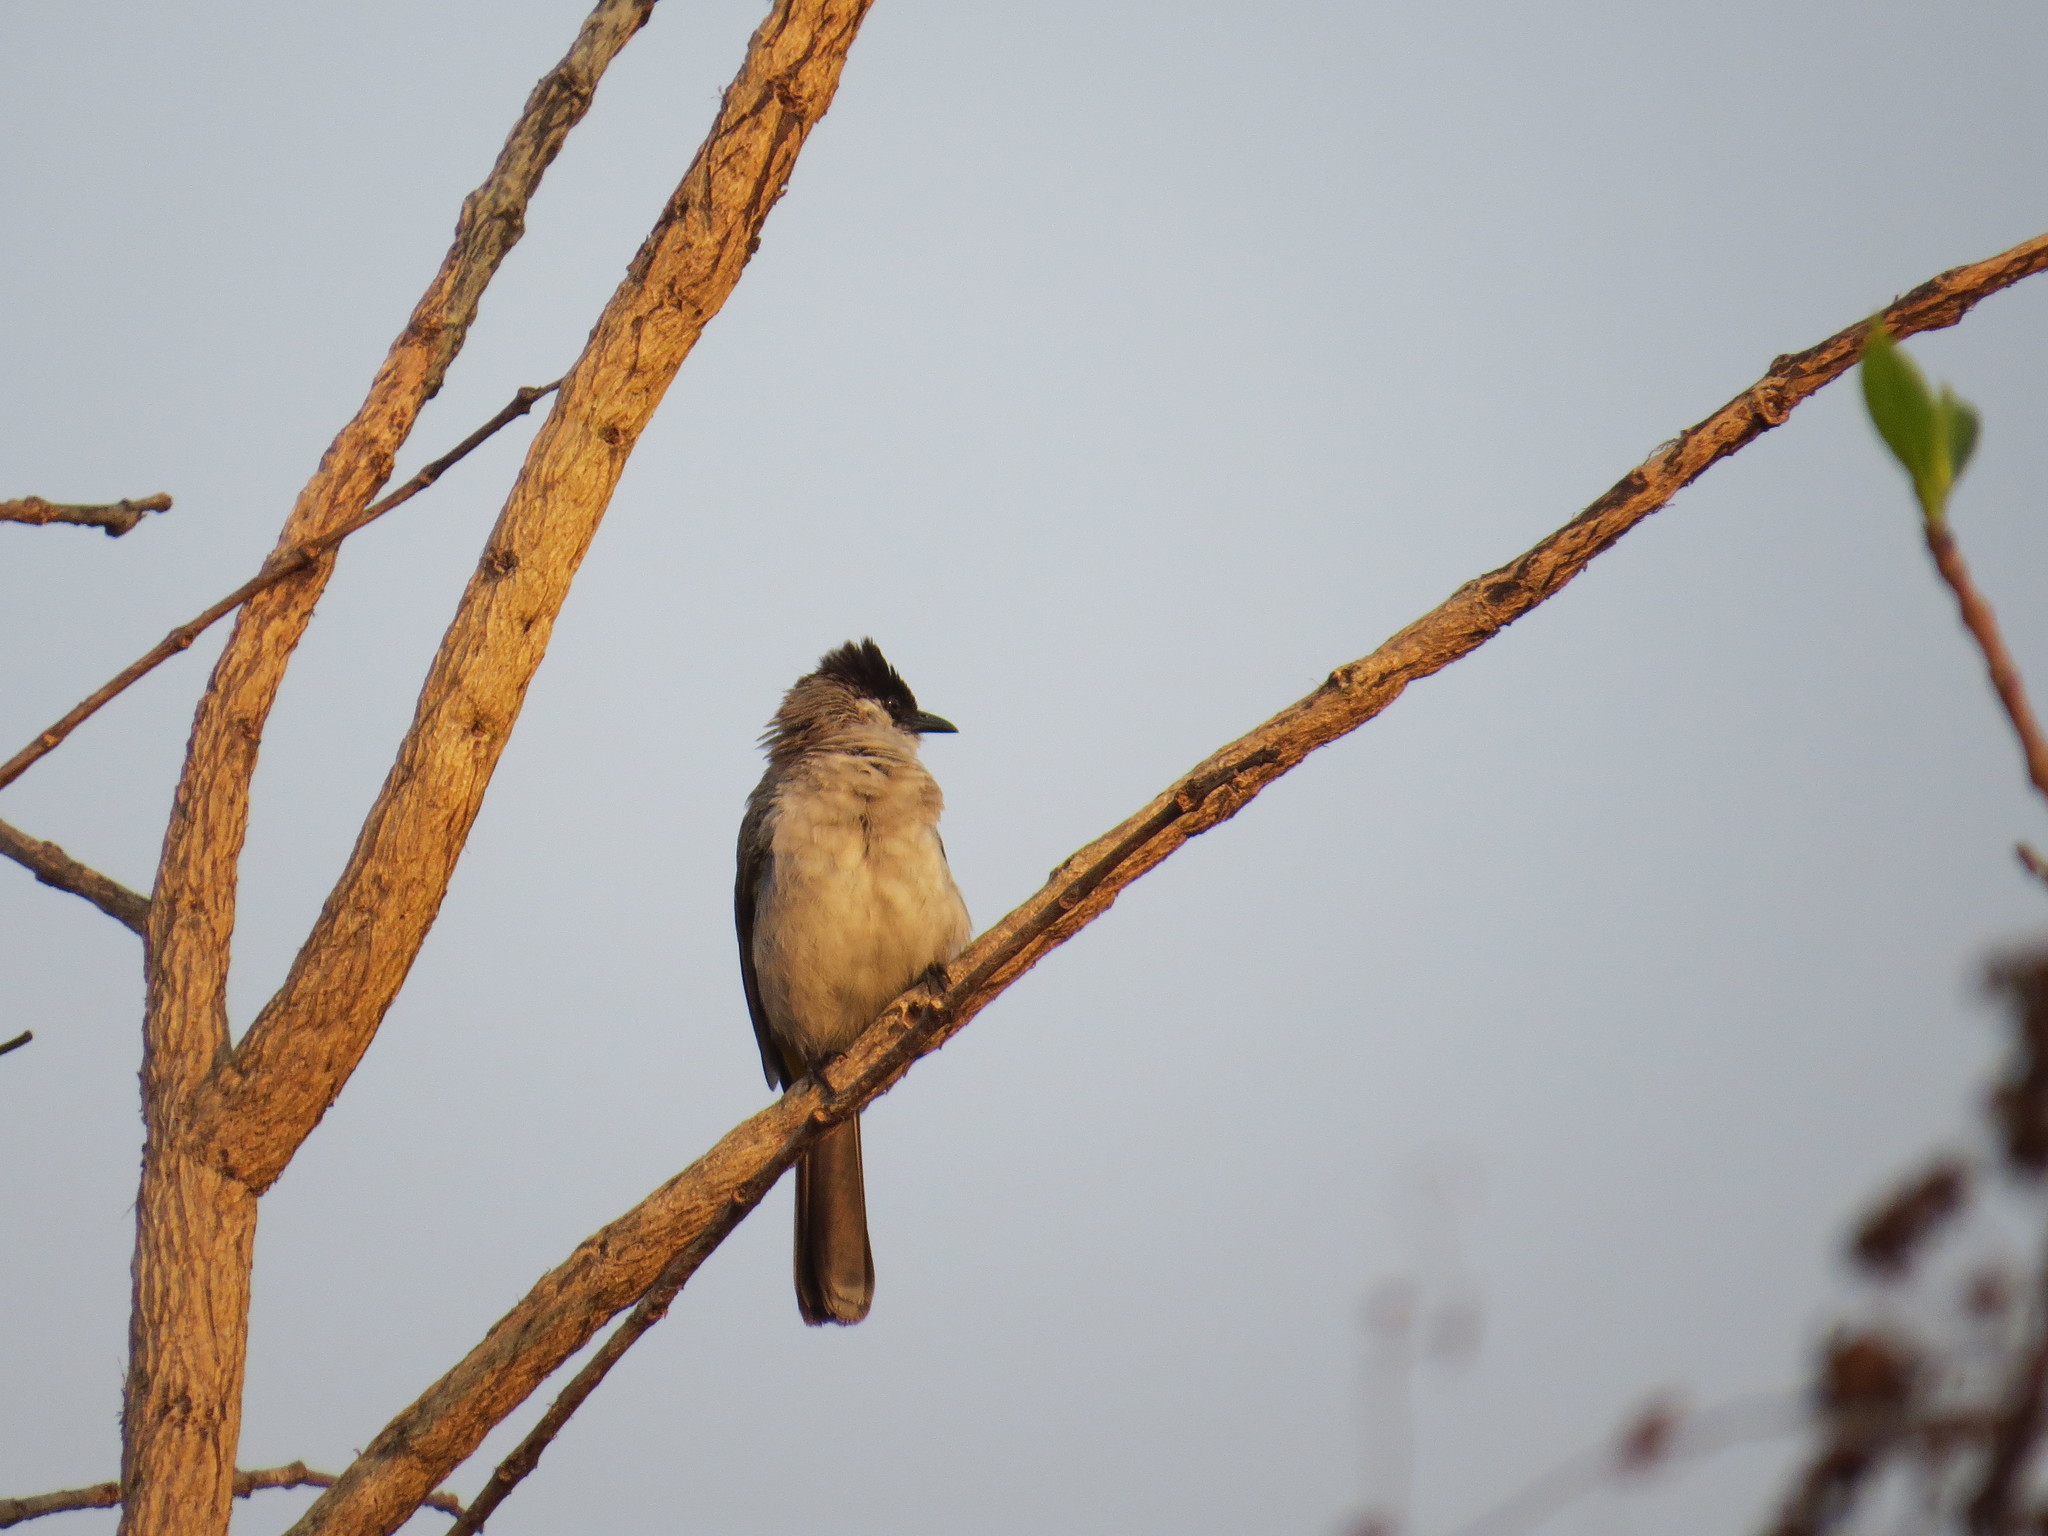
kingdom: Animalia
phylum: Chordata
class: Aves
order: Passeriformes
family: Pycnonotidae
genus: Pycnonotus
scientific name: Pycnonotus aurigaster
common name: Sooty-headed bulbul
